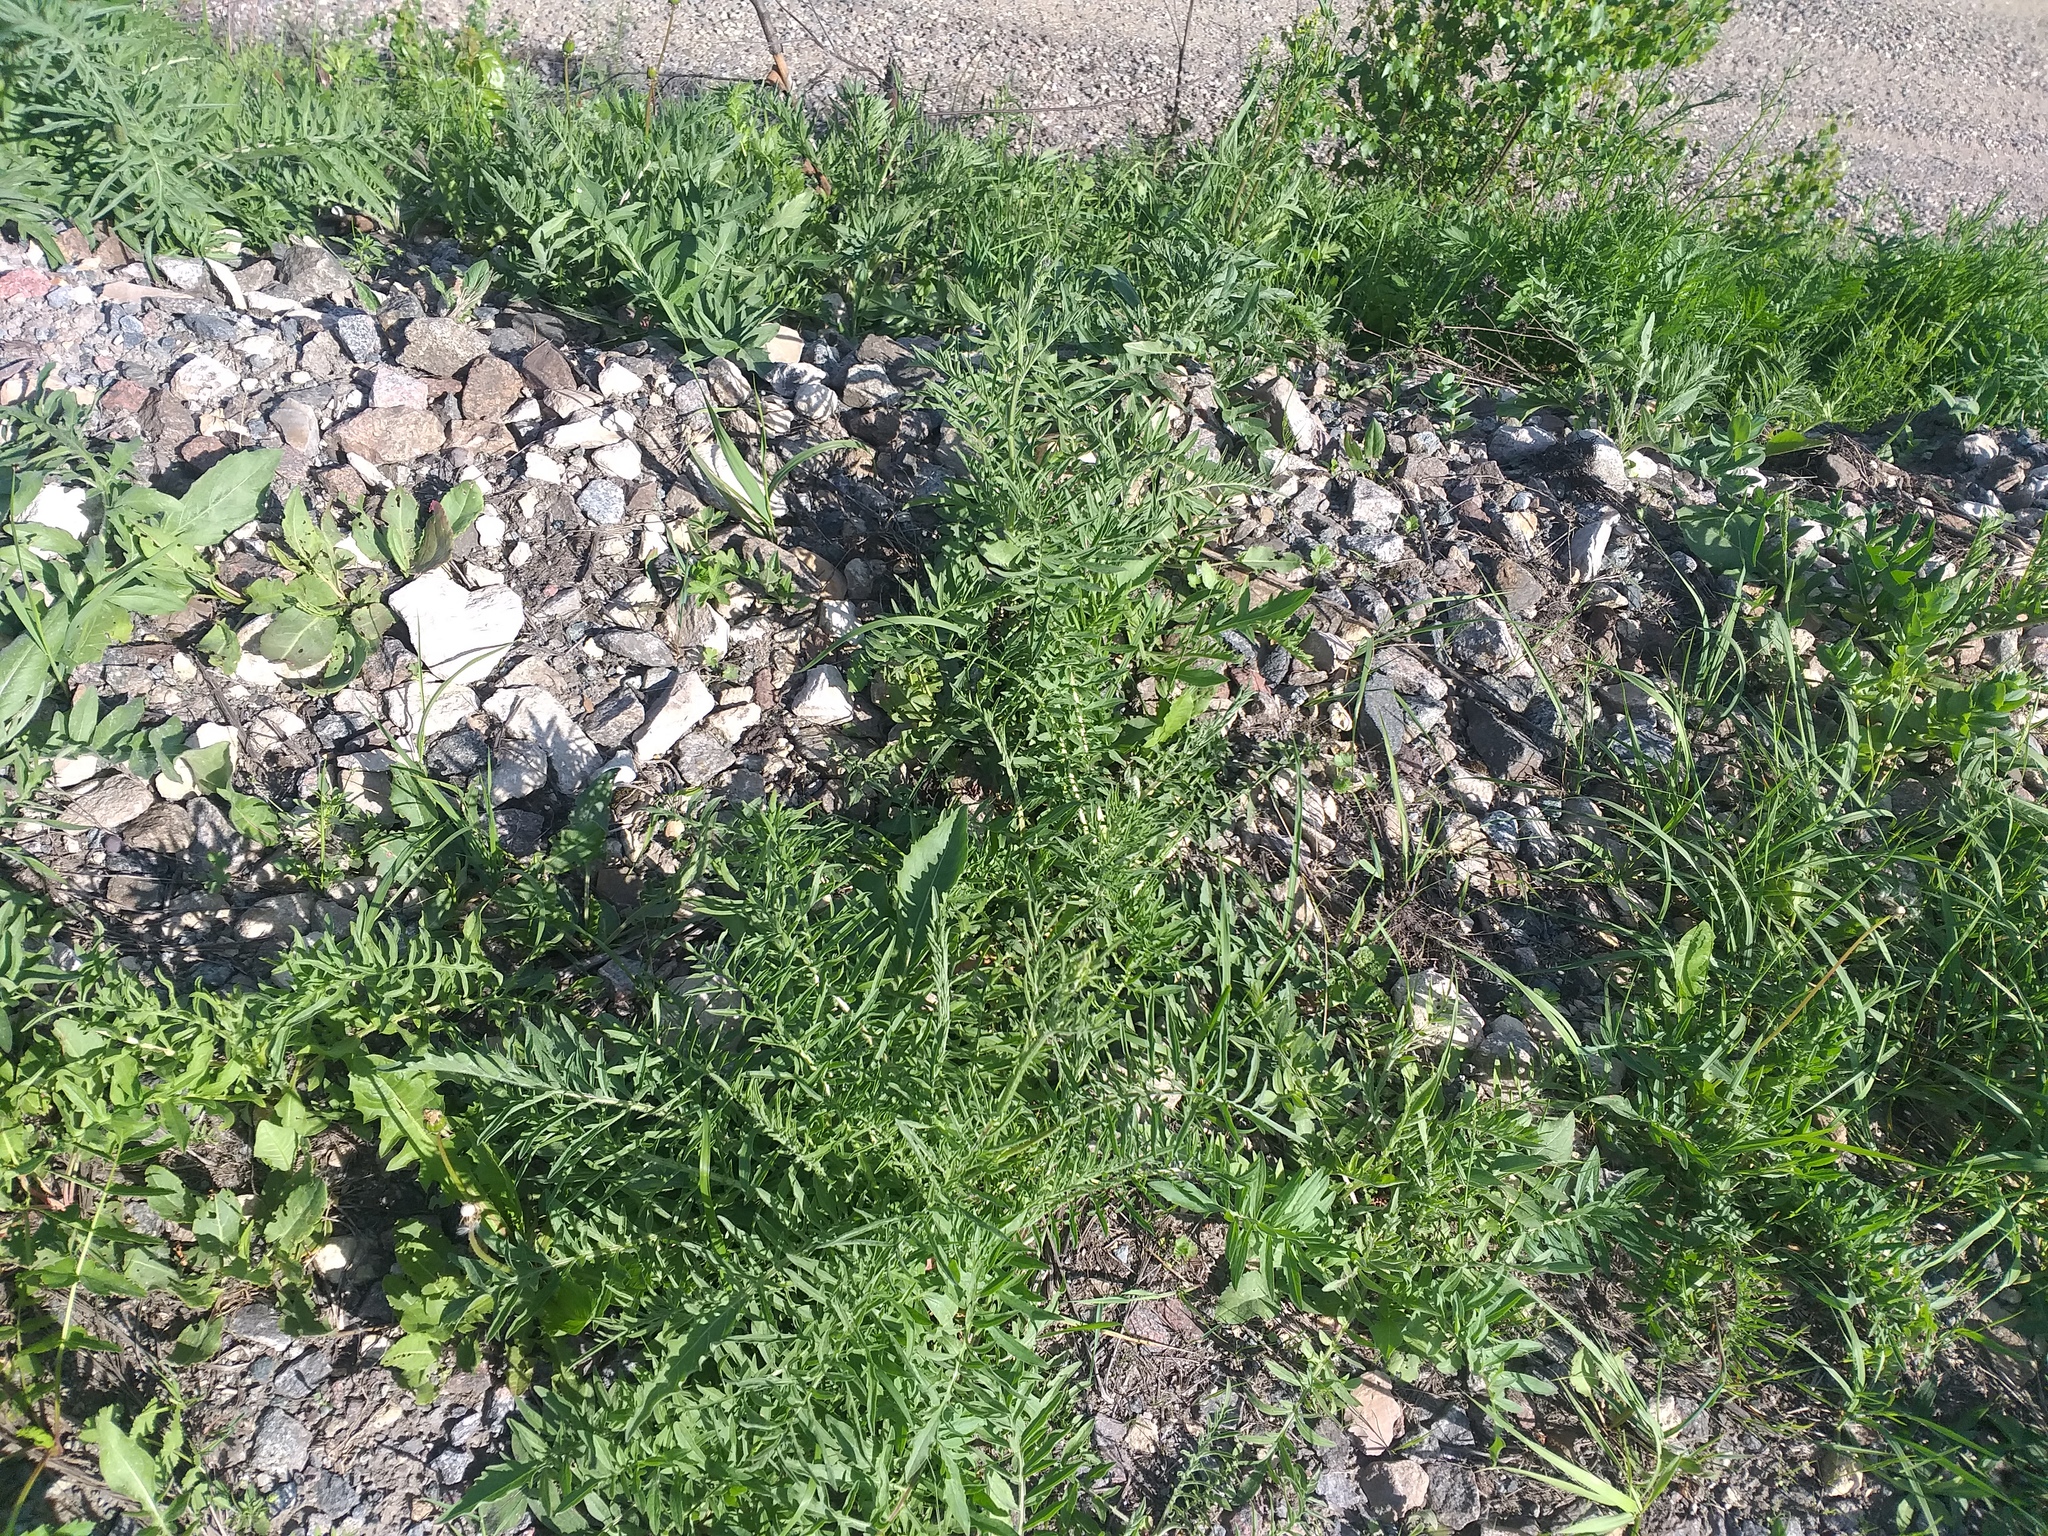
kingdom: Plantae
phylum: Tracheophyta
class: Magnoliopsida
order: Asterales
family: Asteraceae
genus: Centaurea
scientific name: Centaurea scabiosa
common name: Greater knapweed
